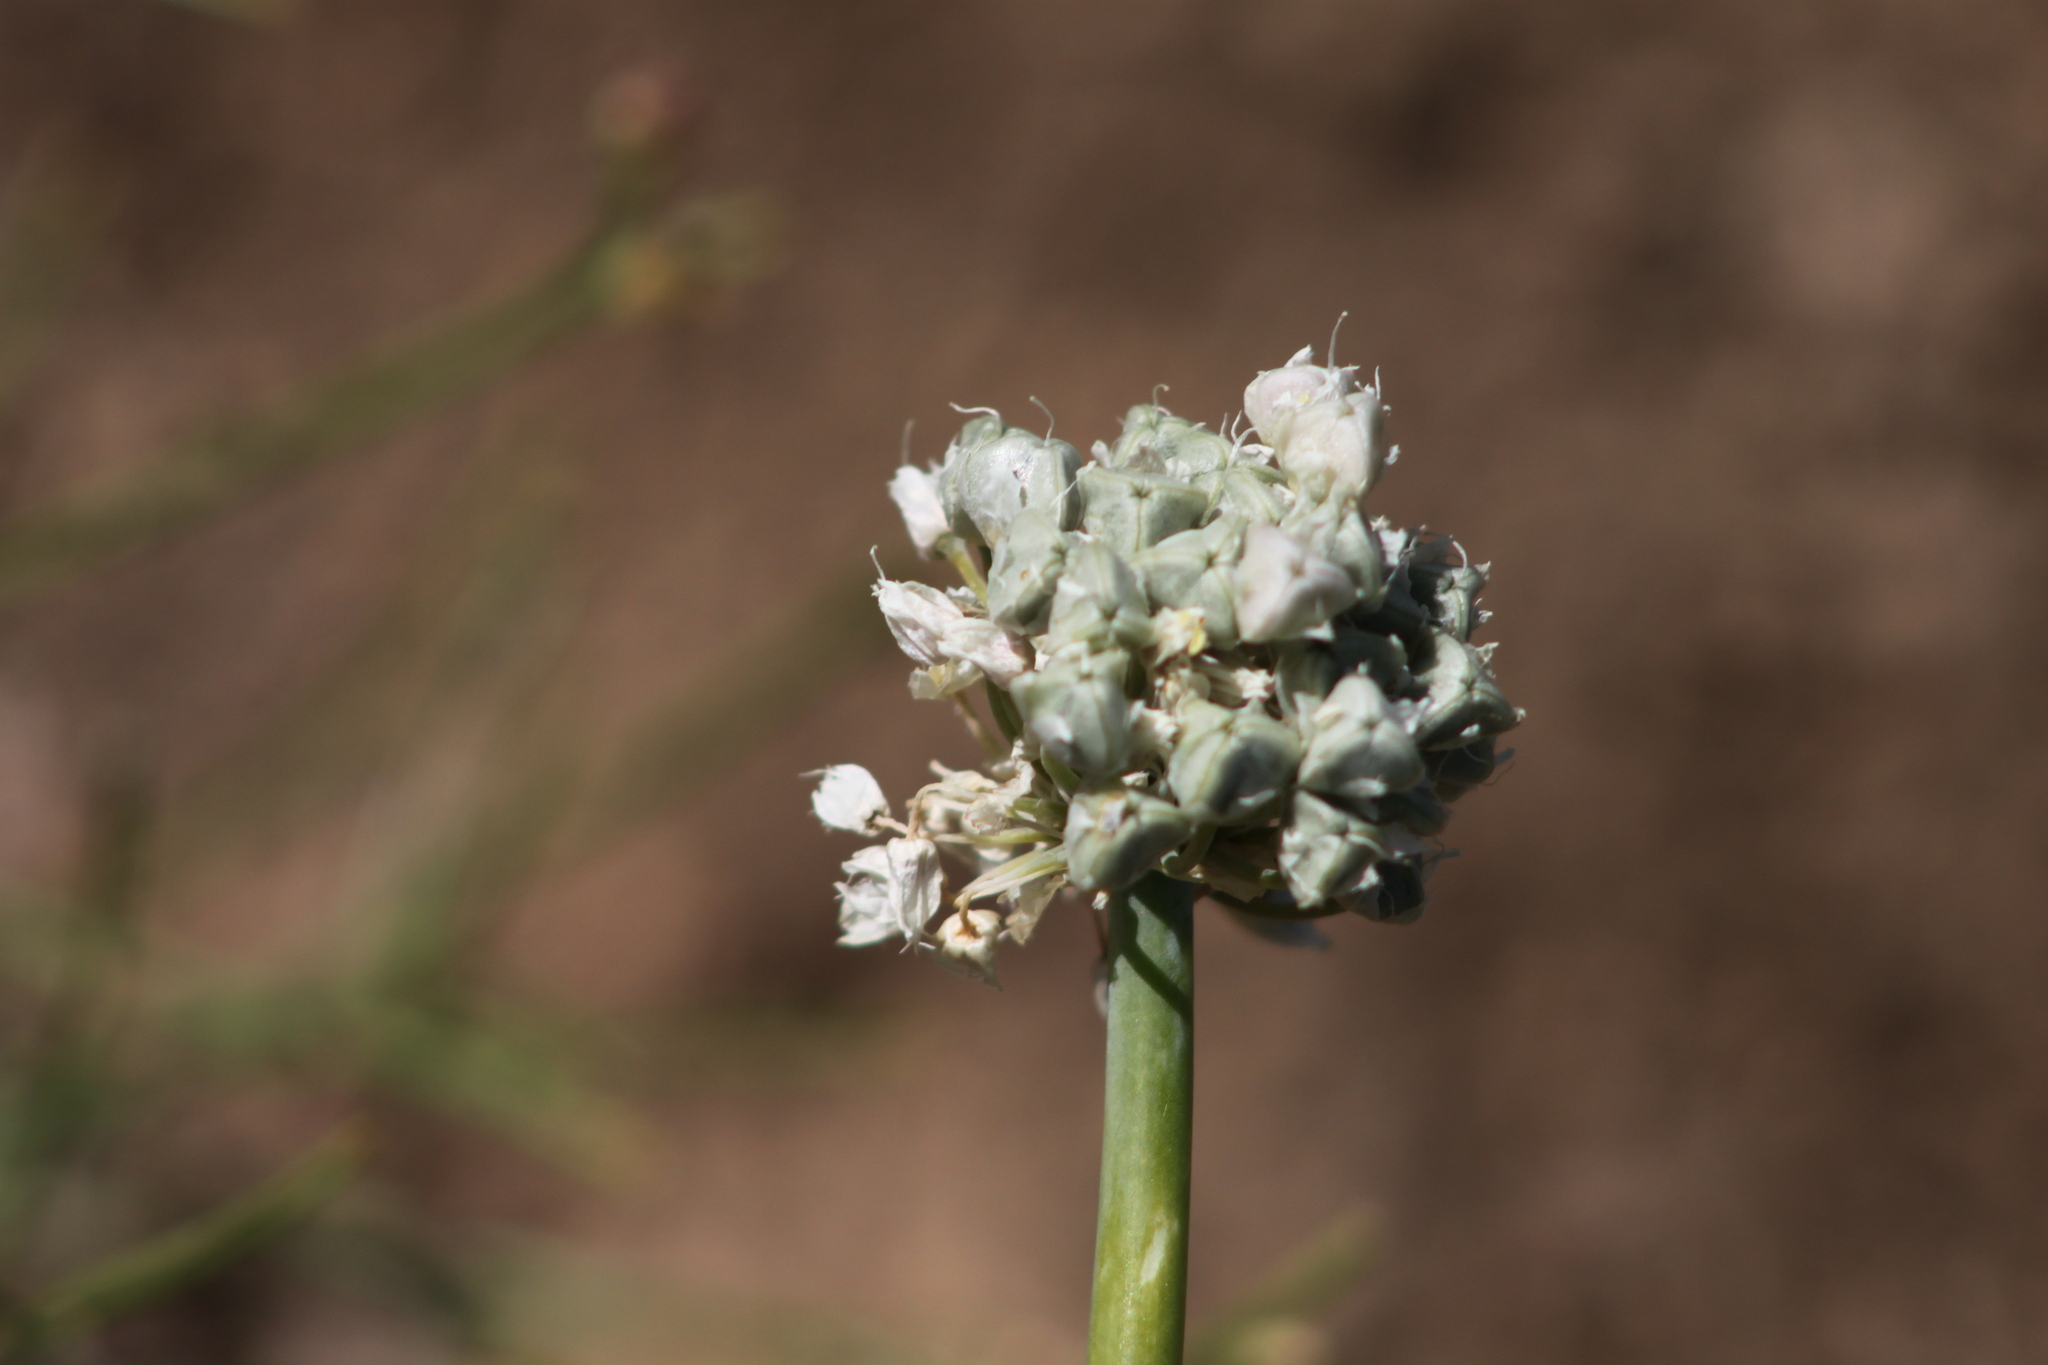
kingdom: Plantae
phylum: Tracheophyta
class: Liliopsida
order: Asparagales
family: Amaryllidaceae
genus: Allium
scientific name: Allium galanthum
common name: Snowdrop onion
